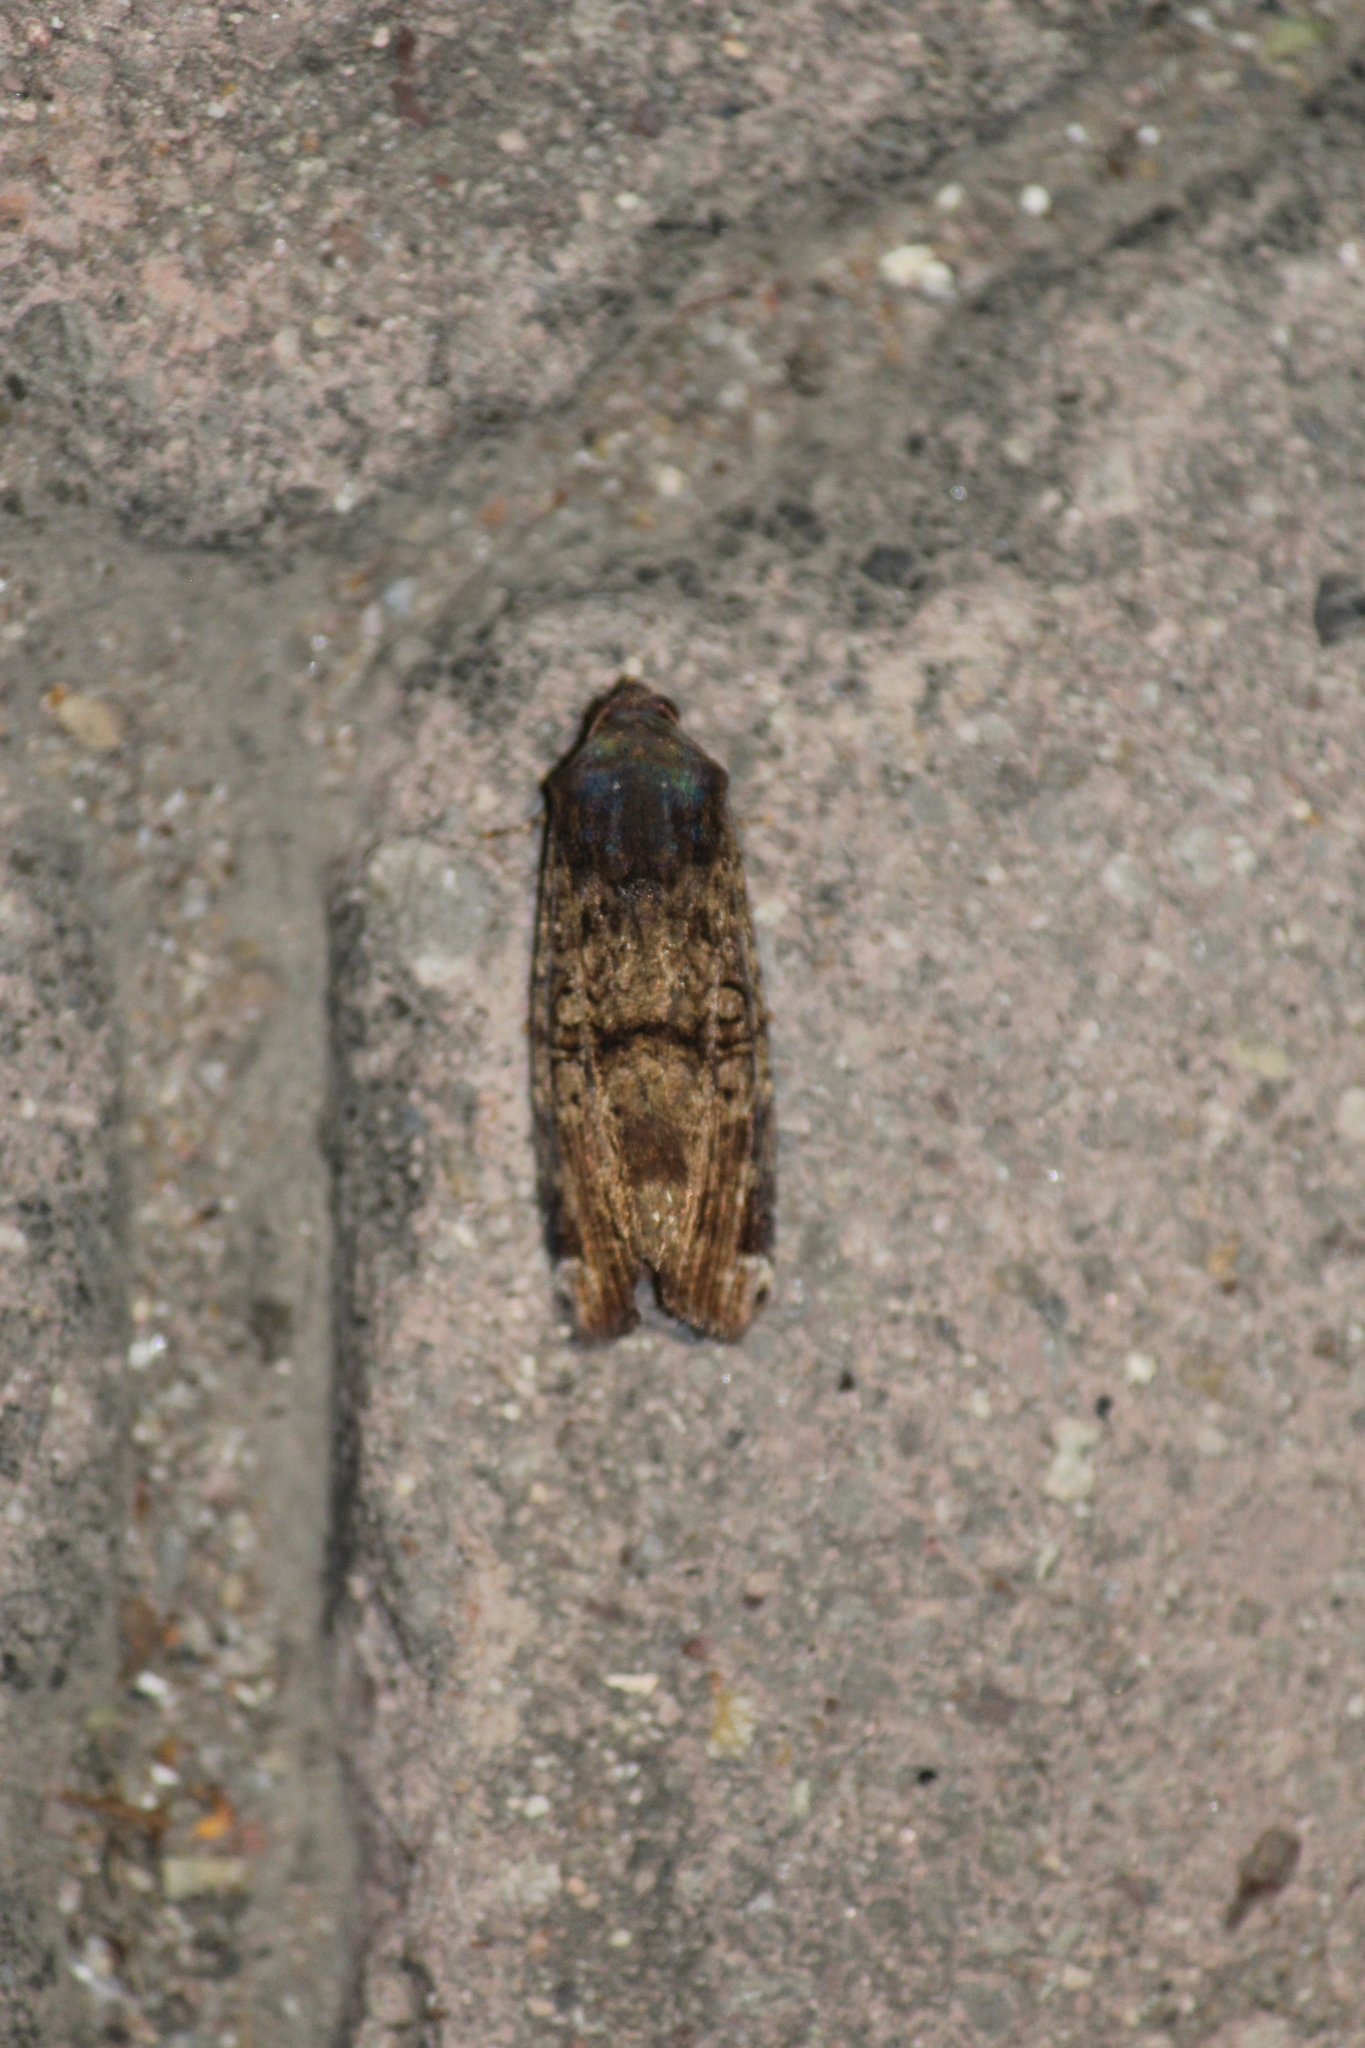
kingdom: Animalia
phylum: Arthropoda
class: Insecta
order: Lepidoptera
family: Noctuidae
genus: Magusa
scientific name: Magusa divaricata
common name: Orb narrow-winged moth
